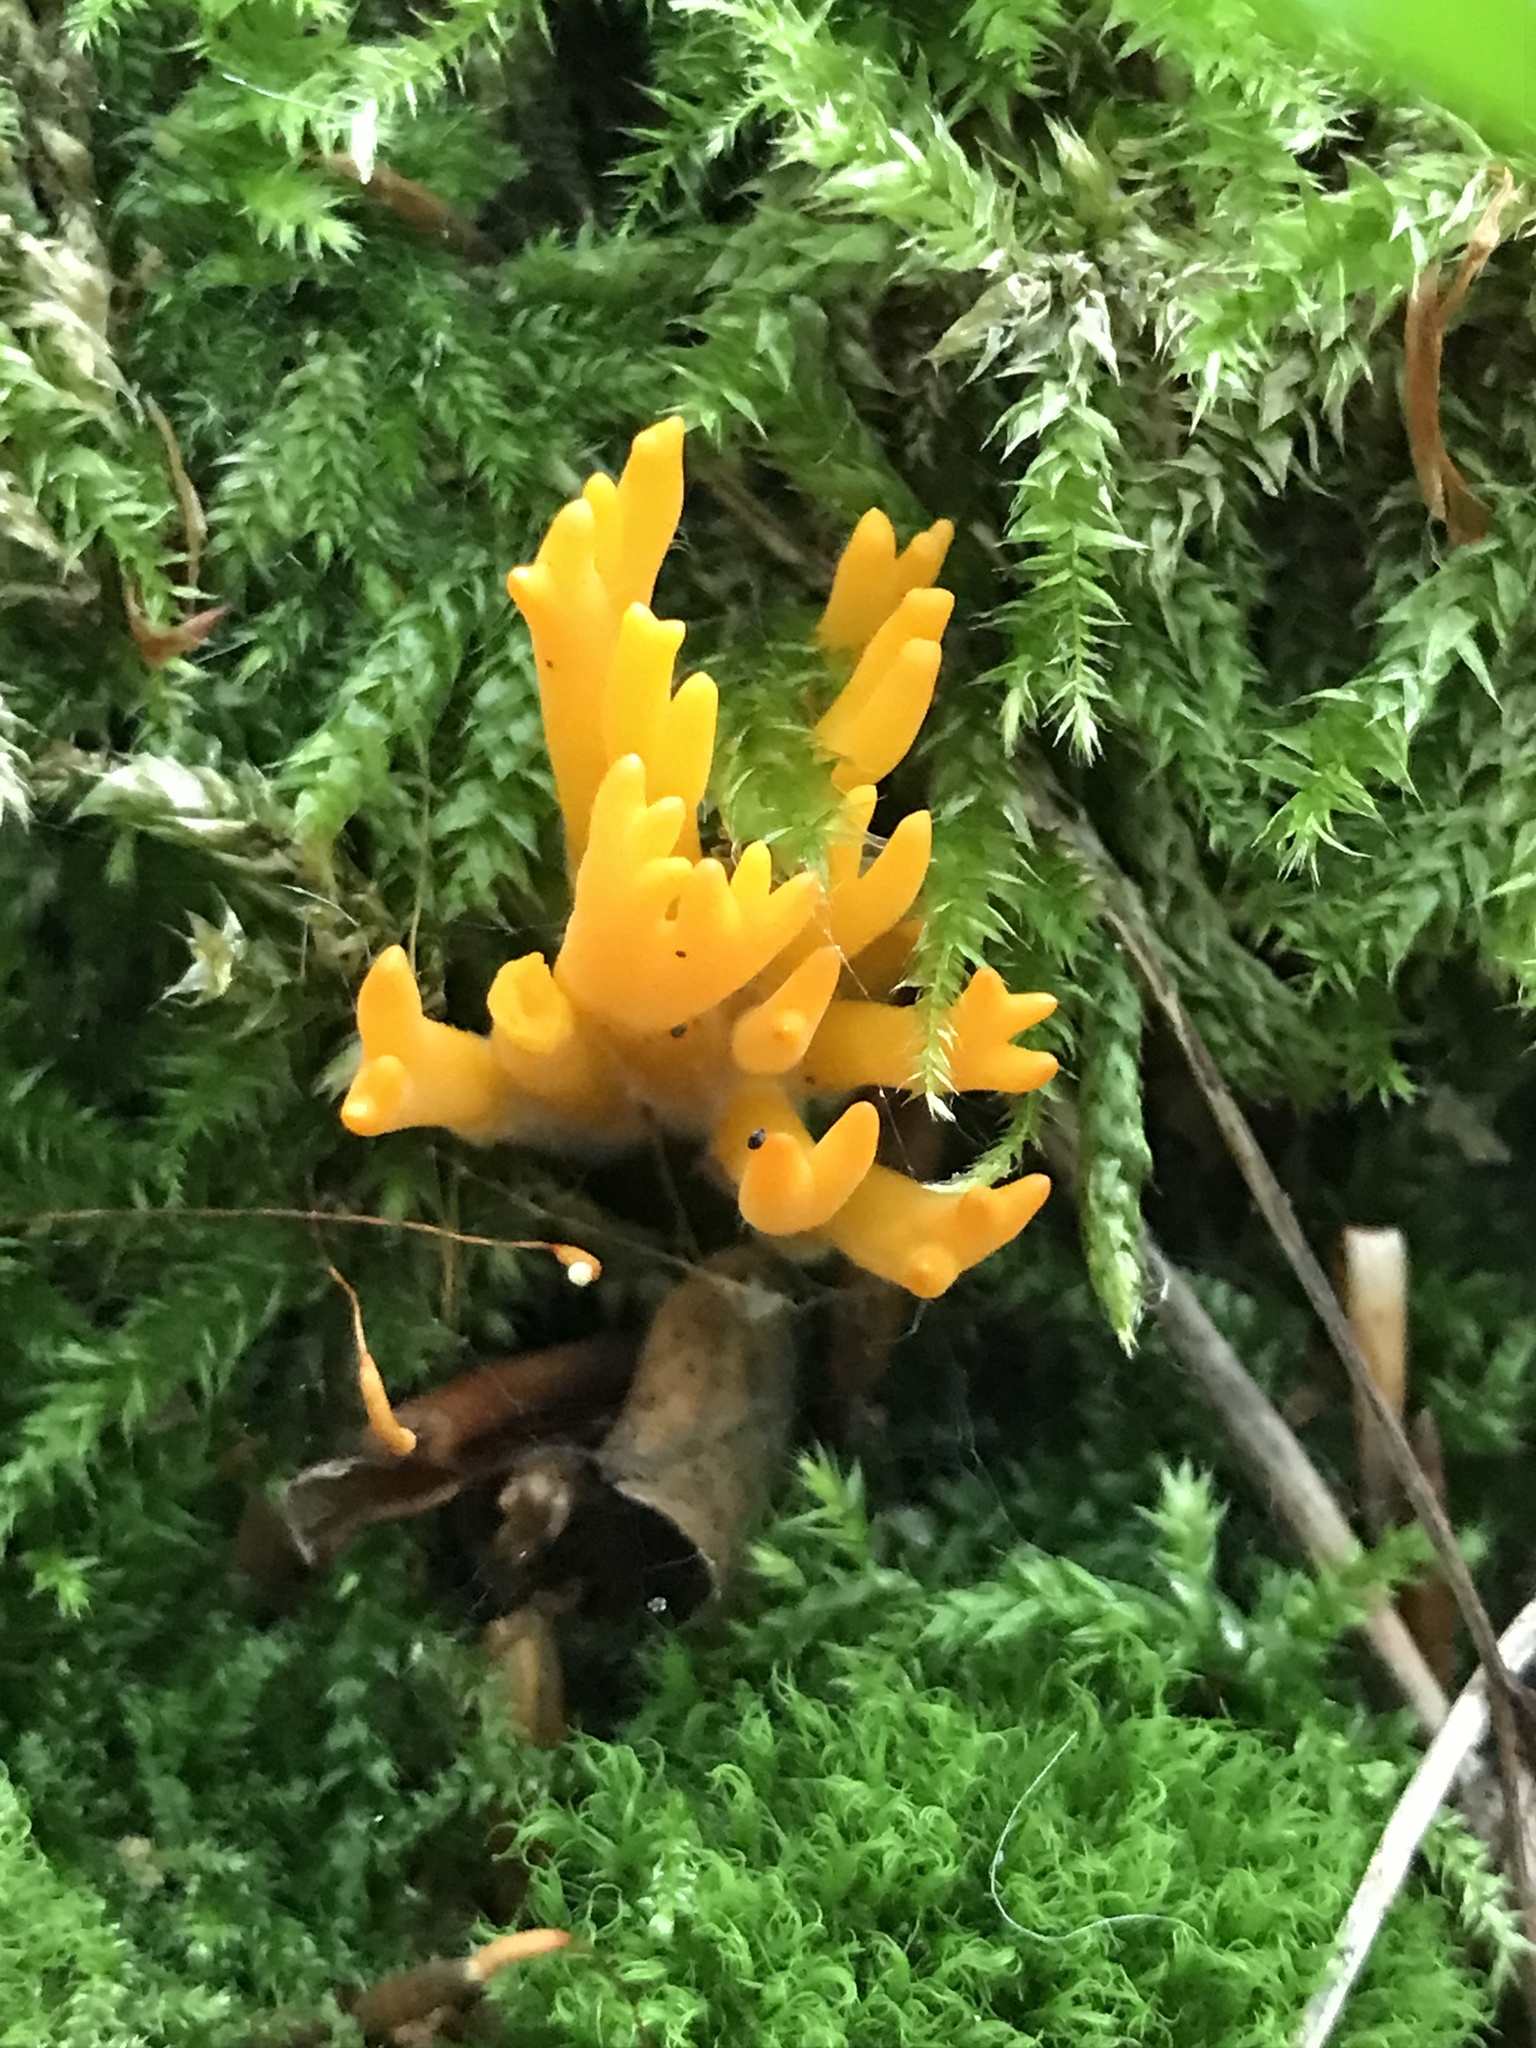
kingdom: Fungi
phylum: Basidiomycota
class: Dacrymycetes
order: Dacrymycetales
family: Dacrymycetaceae
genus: Calocera
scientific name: Calocera viscosa
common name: Yellow stagshorn
